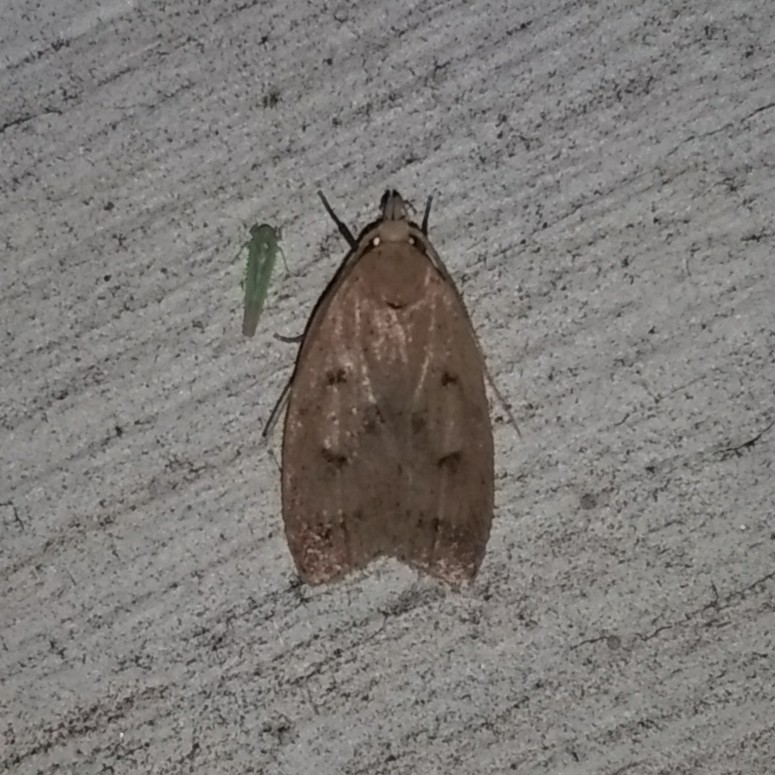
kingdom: Animalia
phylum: Arthropoda
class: Insecta
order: Lepidoptera
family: Peleopodidae
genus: Machimia
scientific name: Machimia tentoriferella
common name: Gold-striped leaftier moth
